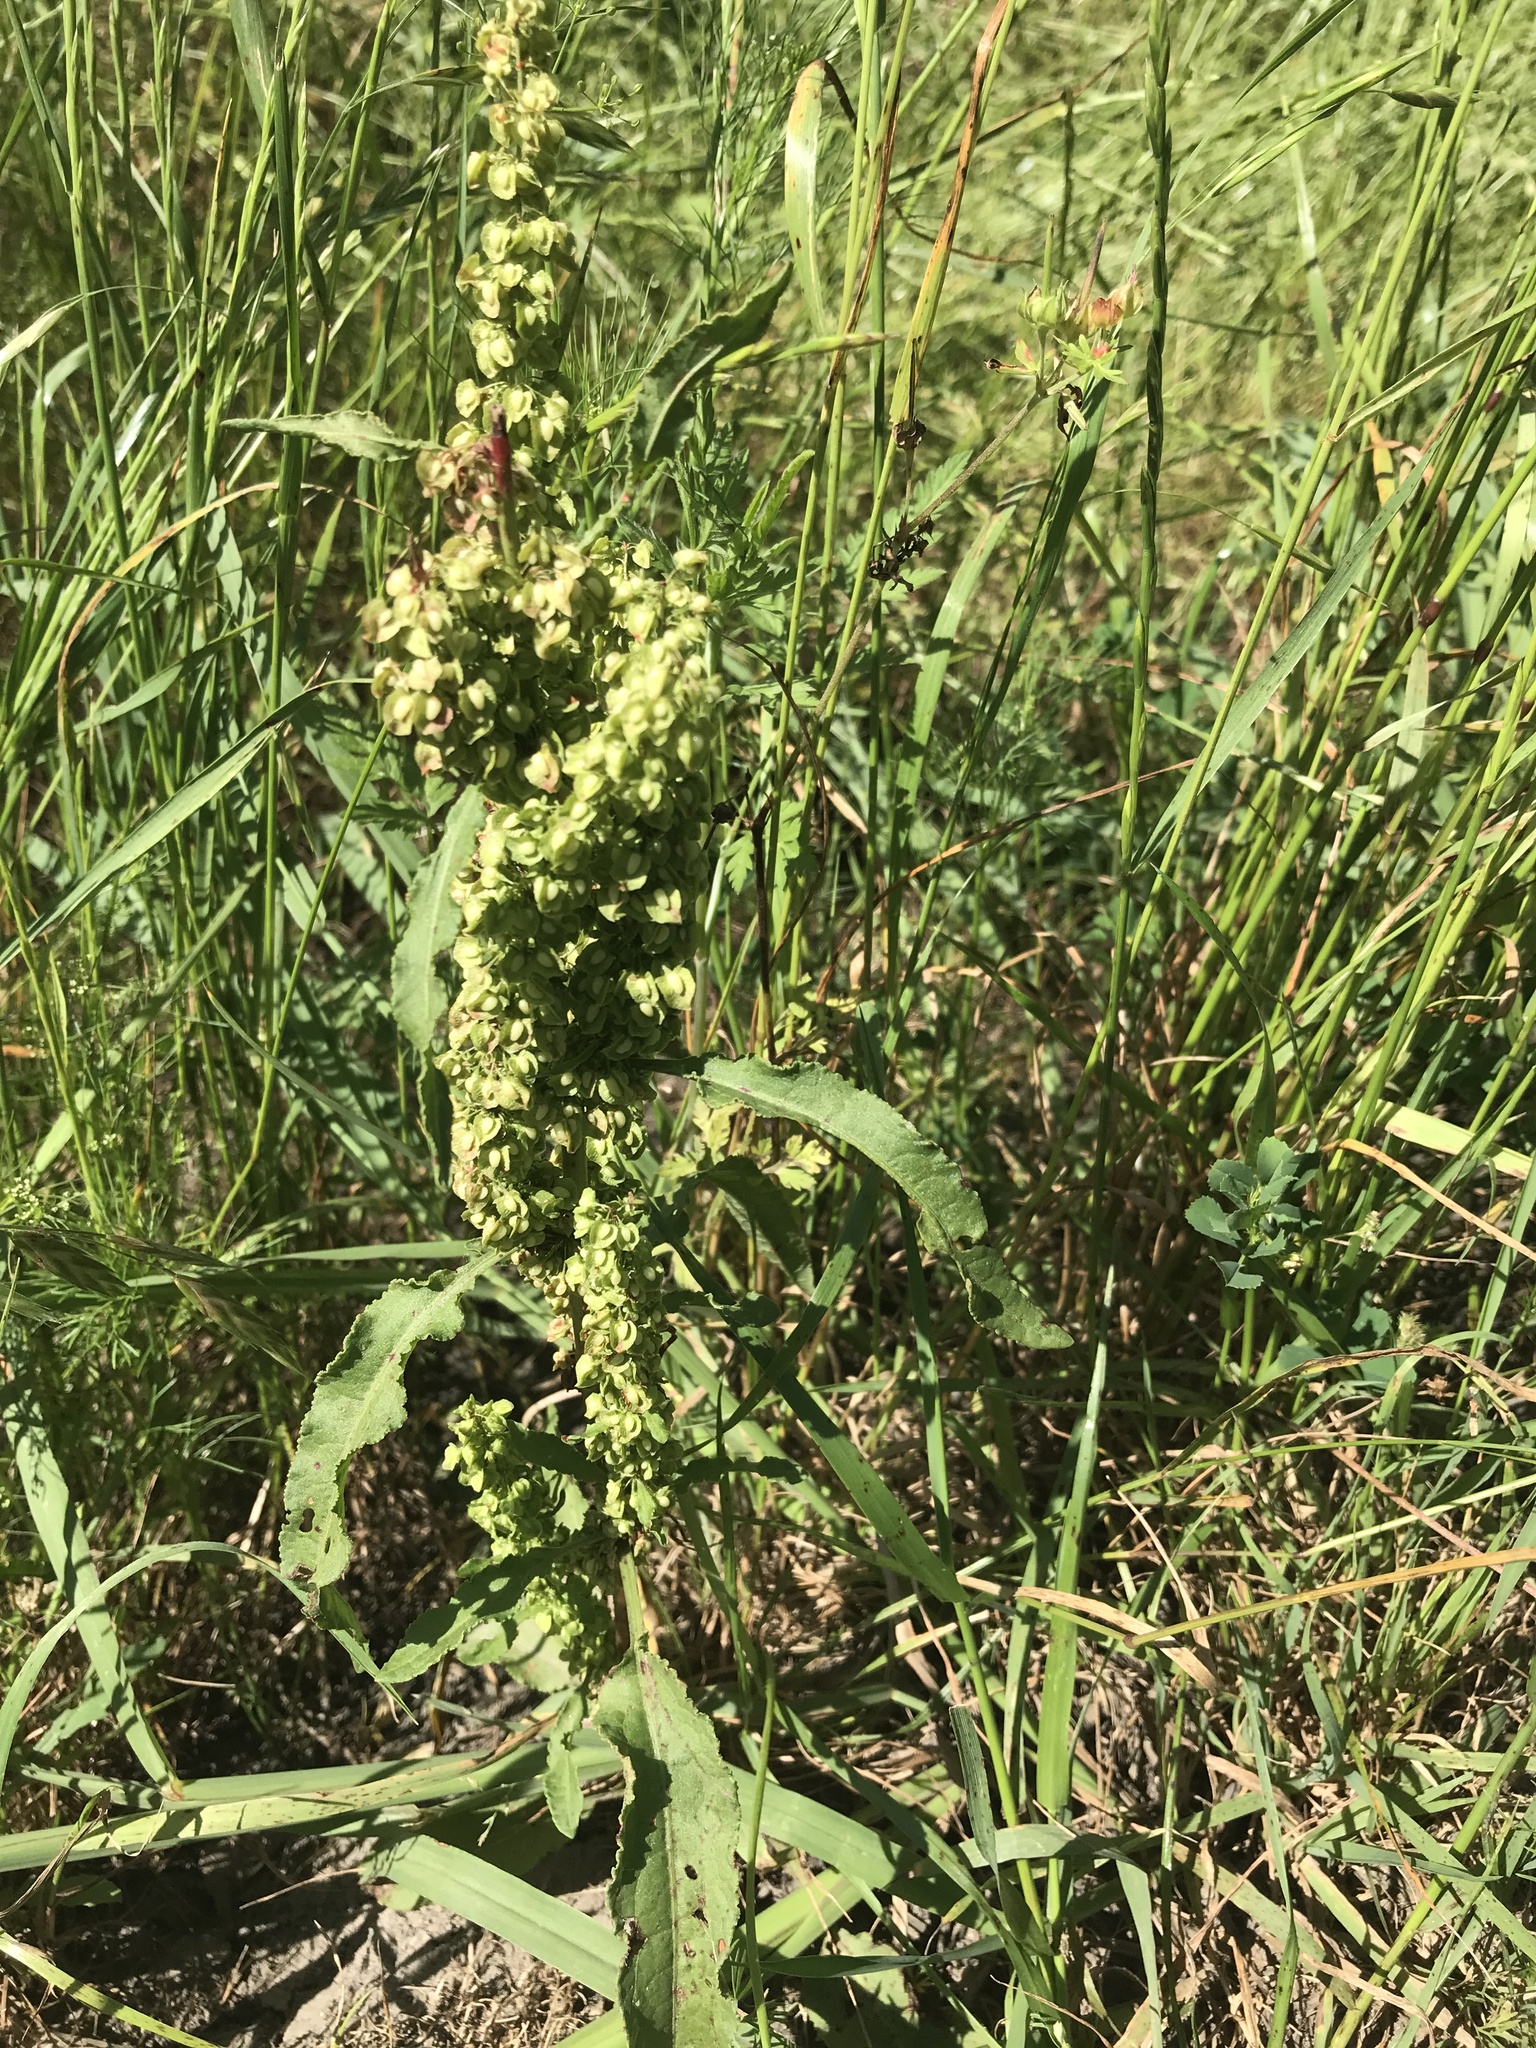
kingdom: Plantae
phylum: Tracheophyta
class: Magnoliopsida
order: Caryophyllales
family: Polygonaceae
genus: Rumex
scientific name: Rumex crispus
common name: Curled dock
